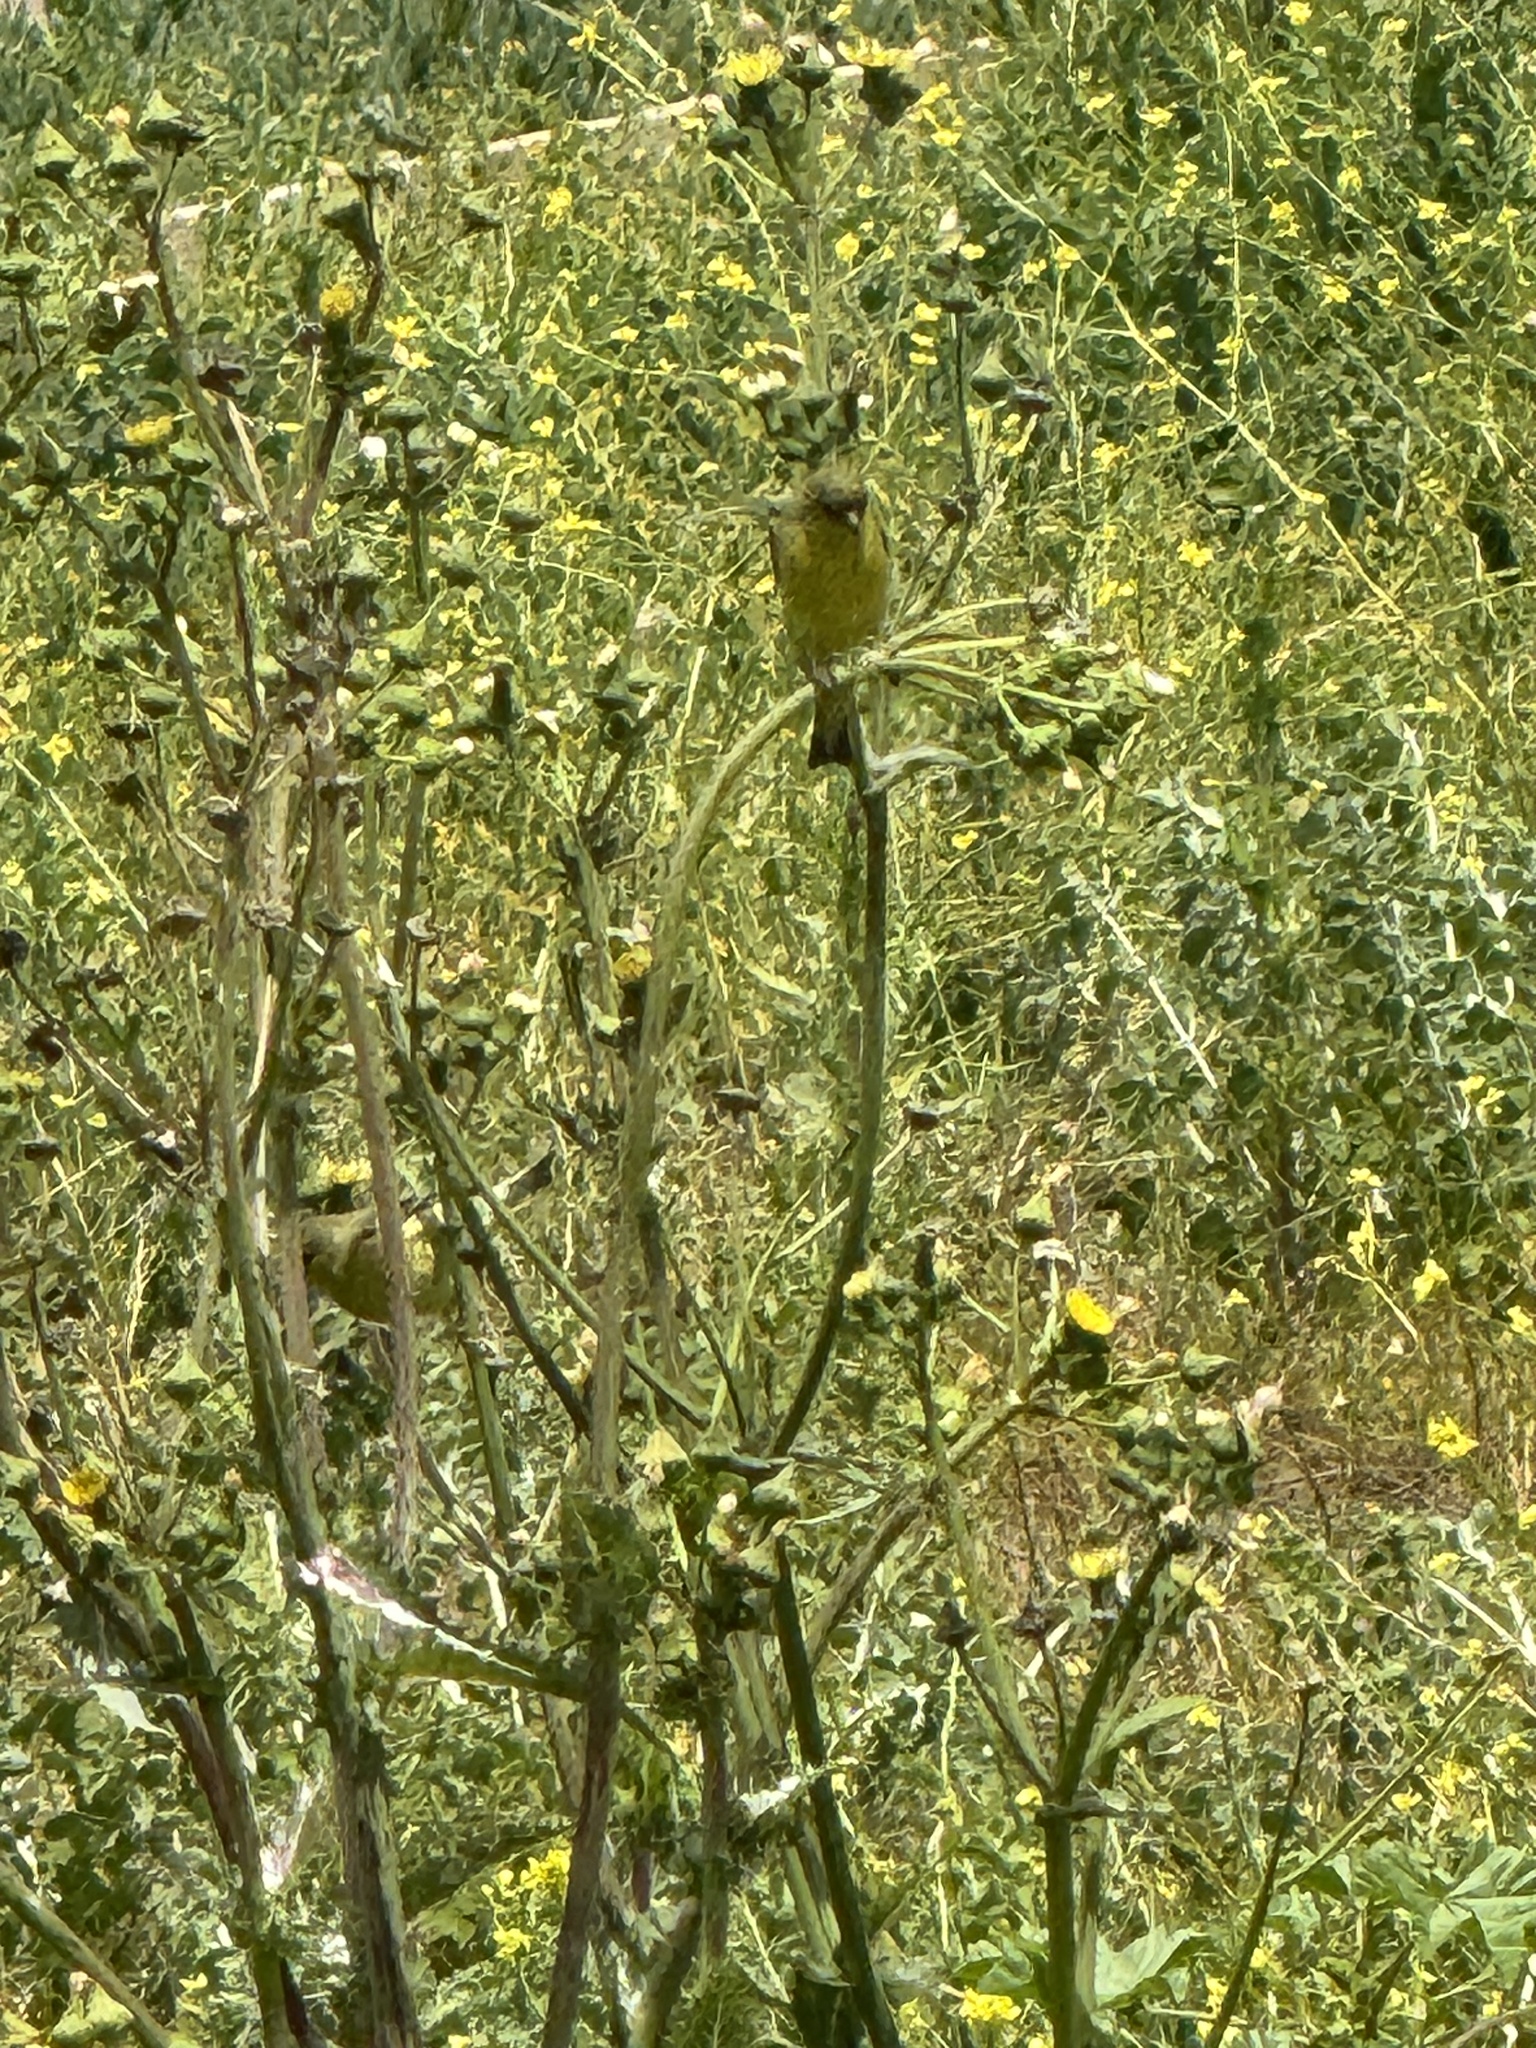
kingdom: Animalia
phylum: Chordata
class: Aves
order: Passeriformes
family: Fringillidae
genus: Spinus
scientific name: Spinus psaltria
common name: Lesser goldfinch
